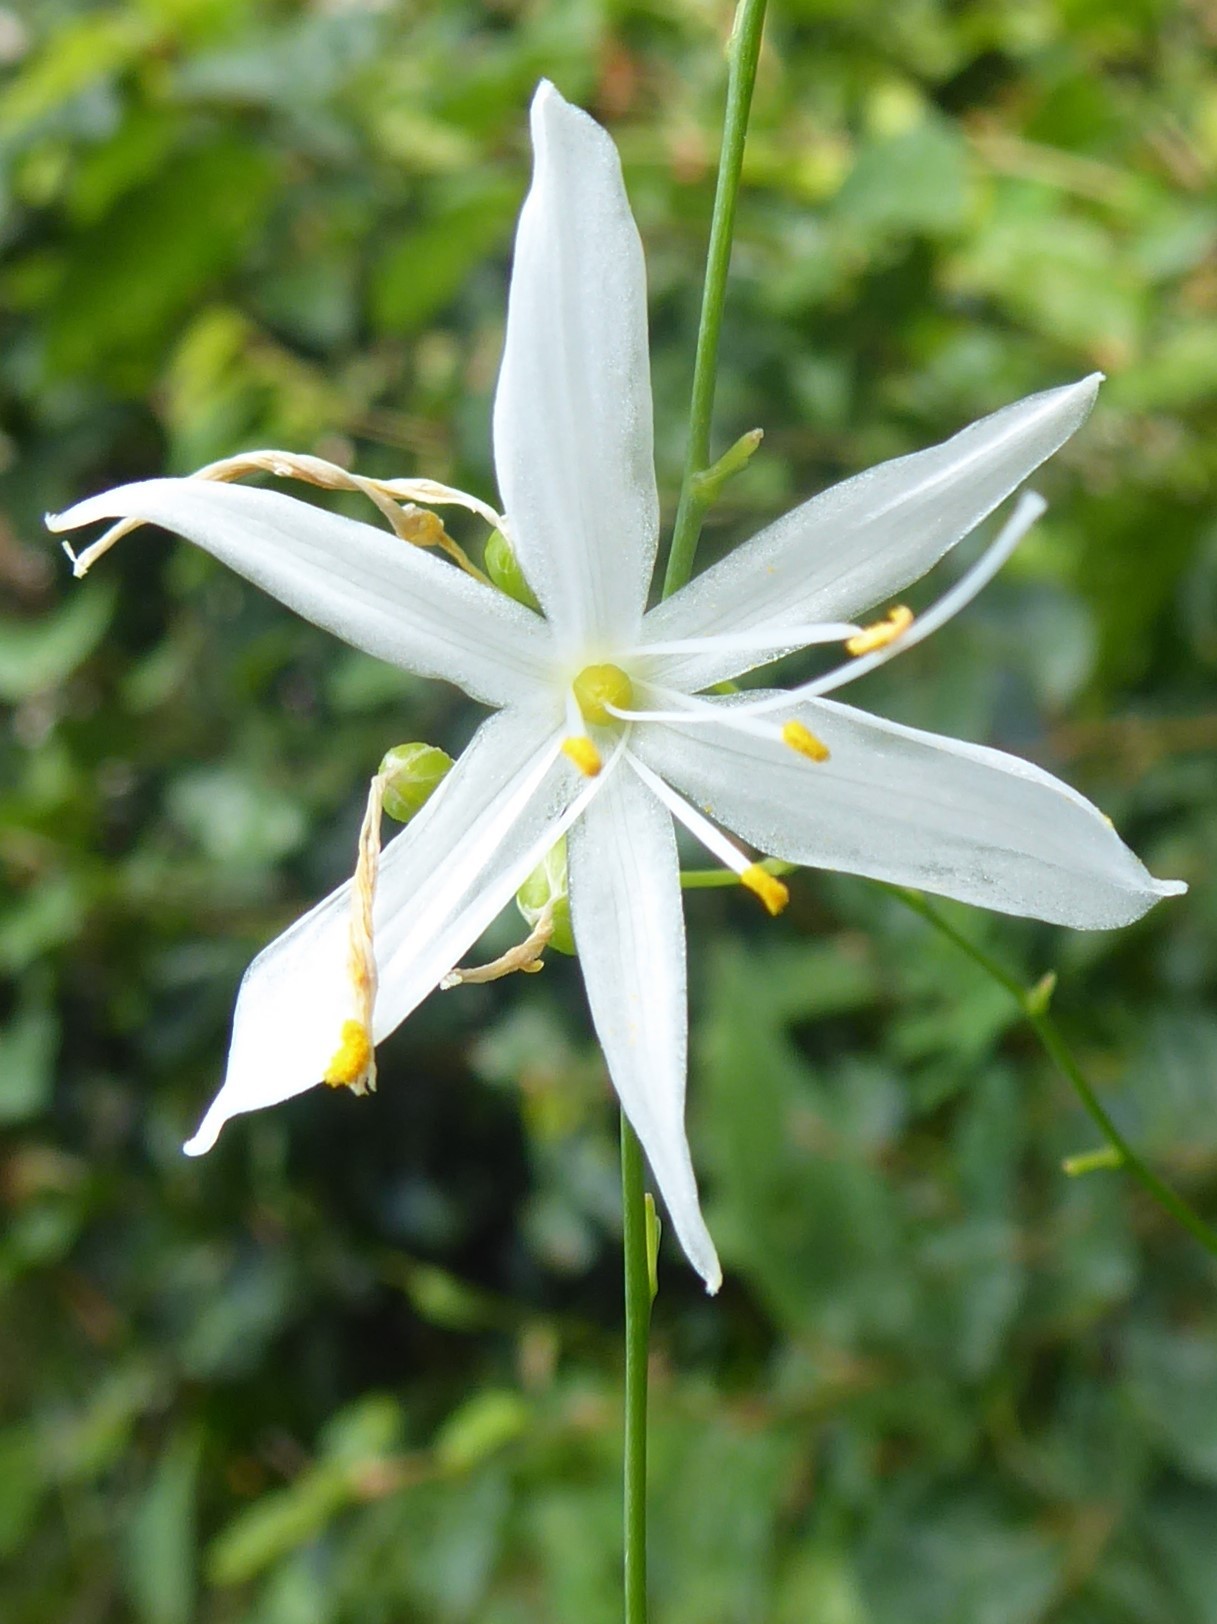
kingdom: Plantae
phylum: Tracheophyta
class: Liliopsida
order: Asparagales
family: Asparagaceae
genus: Anthericum
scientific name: Anthericum ramosum
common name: Branched st. bernard's-lily
